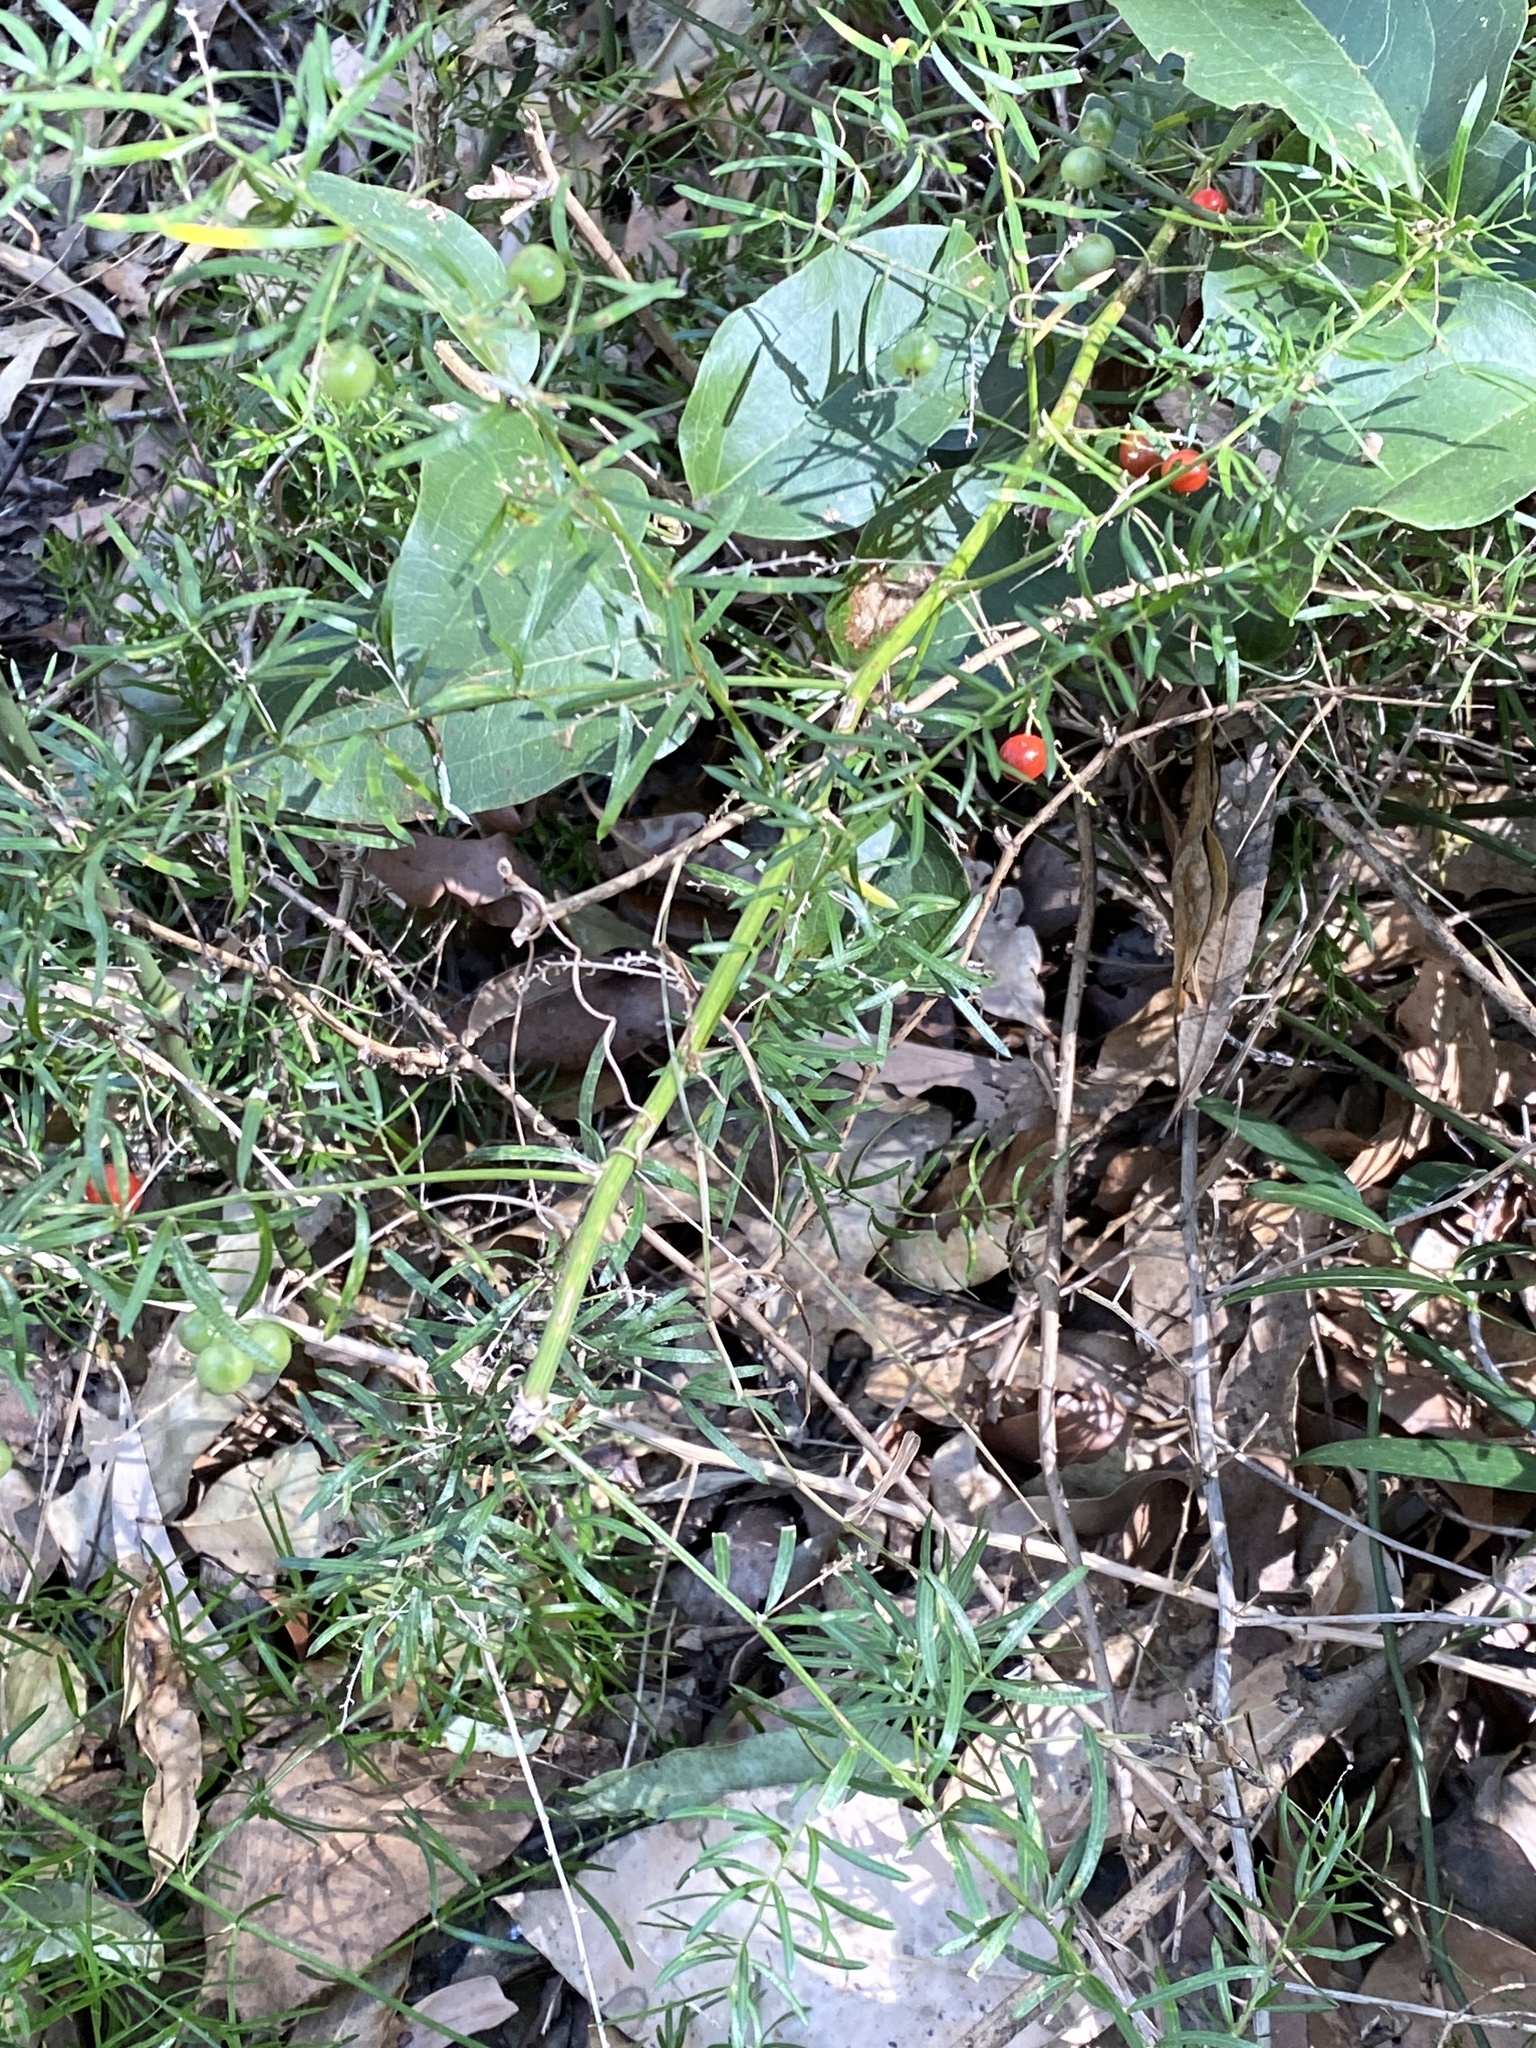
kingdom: Plantae
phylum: Tracheophyta
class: Liliopsida
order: Asparagales
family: Asparagaceae
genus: Asparagus
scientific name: Asparagus aethiopicus
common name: Sprenger's asparagus fern
